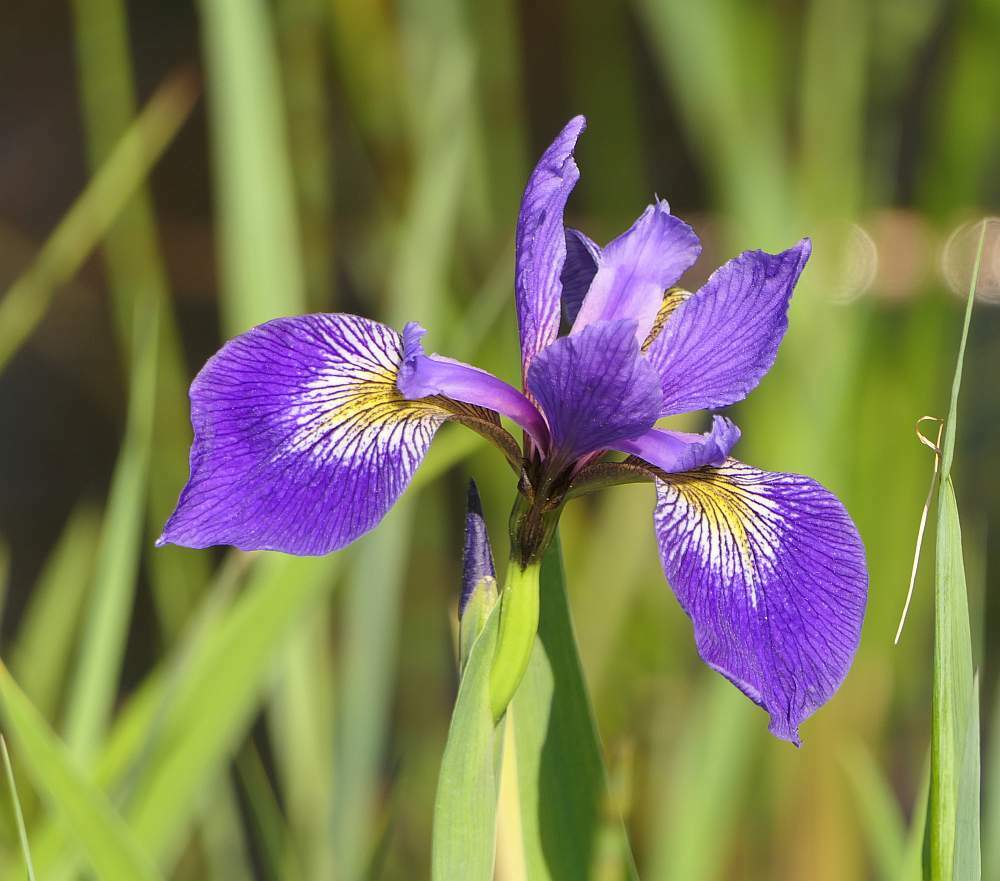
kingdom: Plantae
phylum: Tracheophyta
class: Liliopsida
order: Asparagales
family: Iridaceae
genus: Iris
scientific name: Iris versicolor
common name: Purple iris
